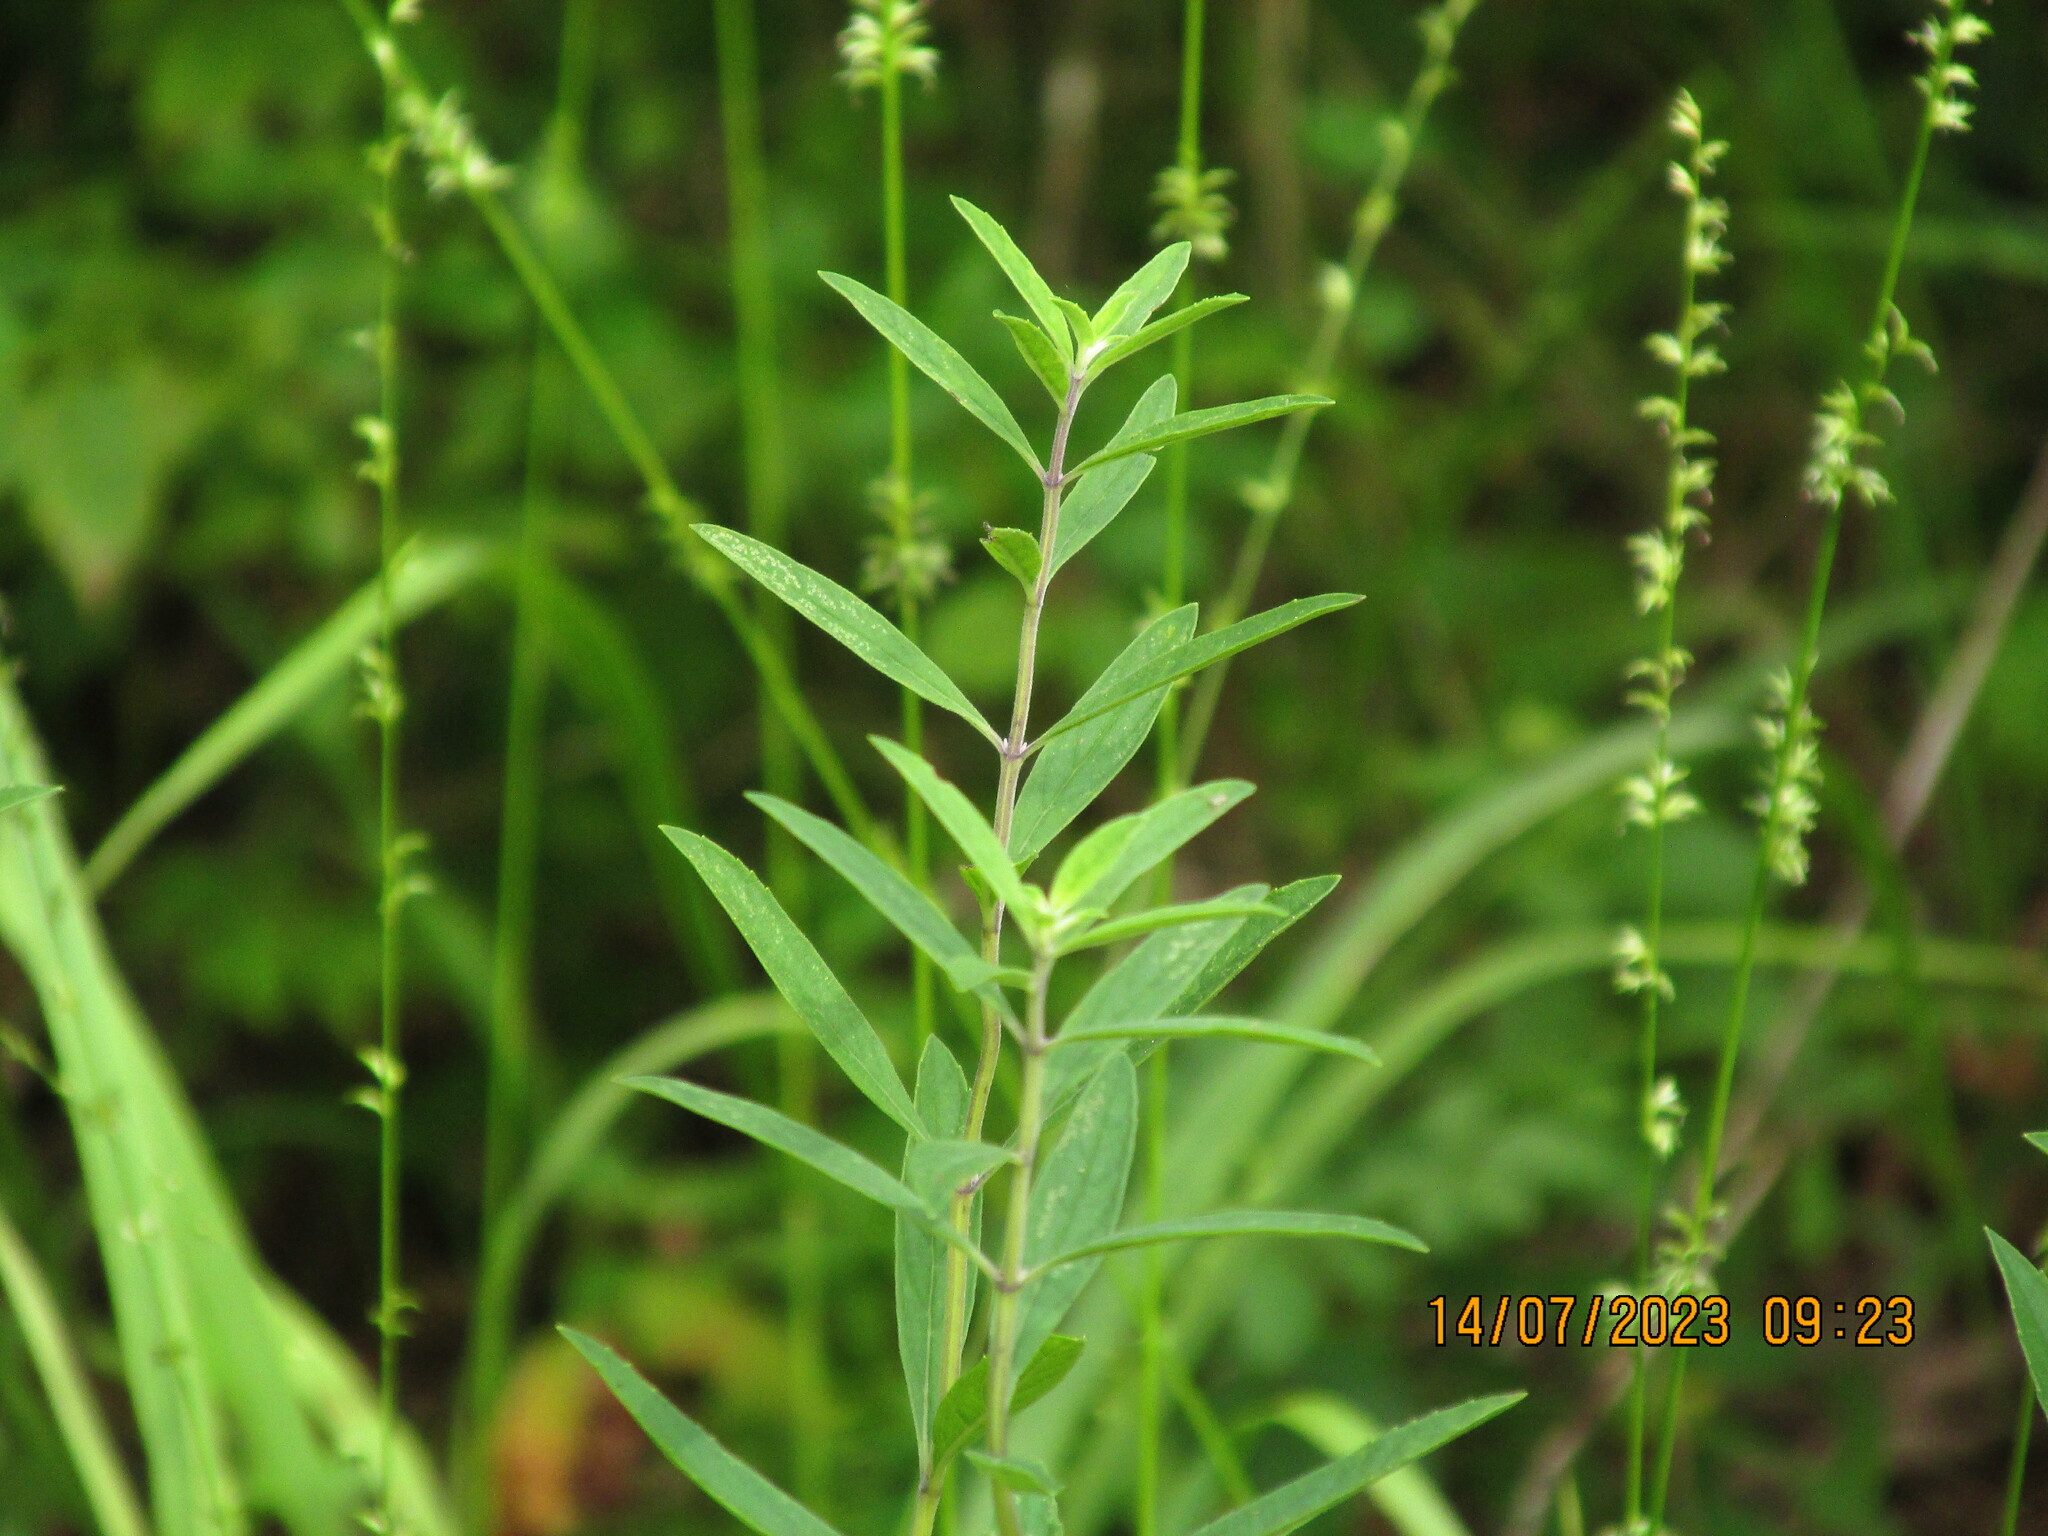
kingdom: Plantae
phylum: Tracheophyta
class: Magnoliopsida
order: Lamiales
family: Lamiaceae
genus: Salvia
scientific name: Salvia azurea
